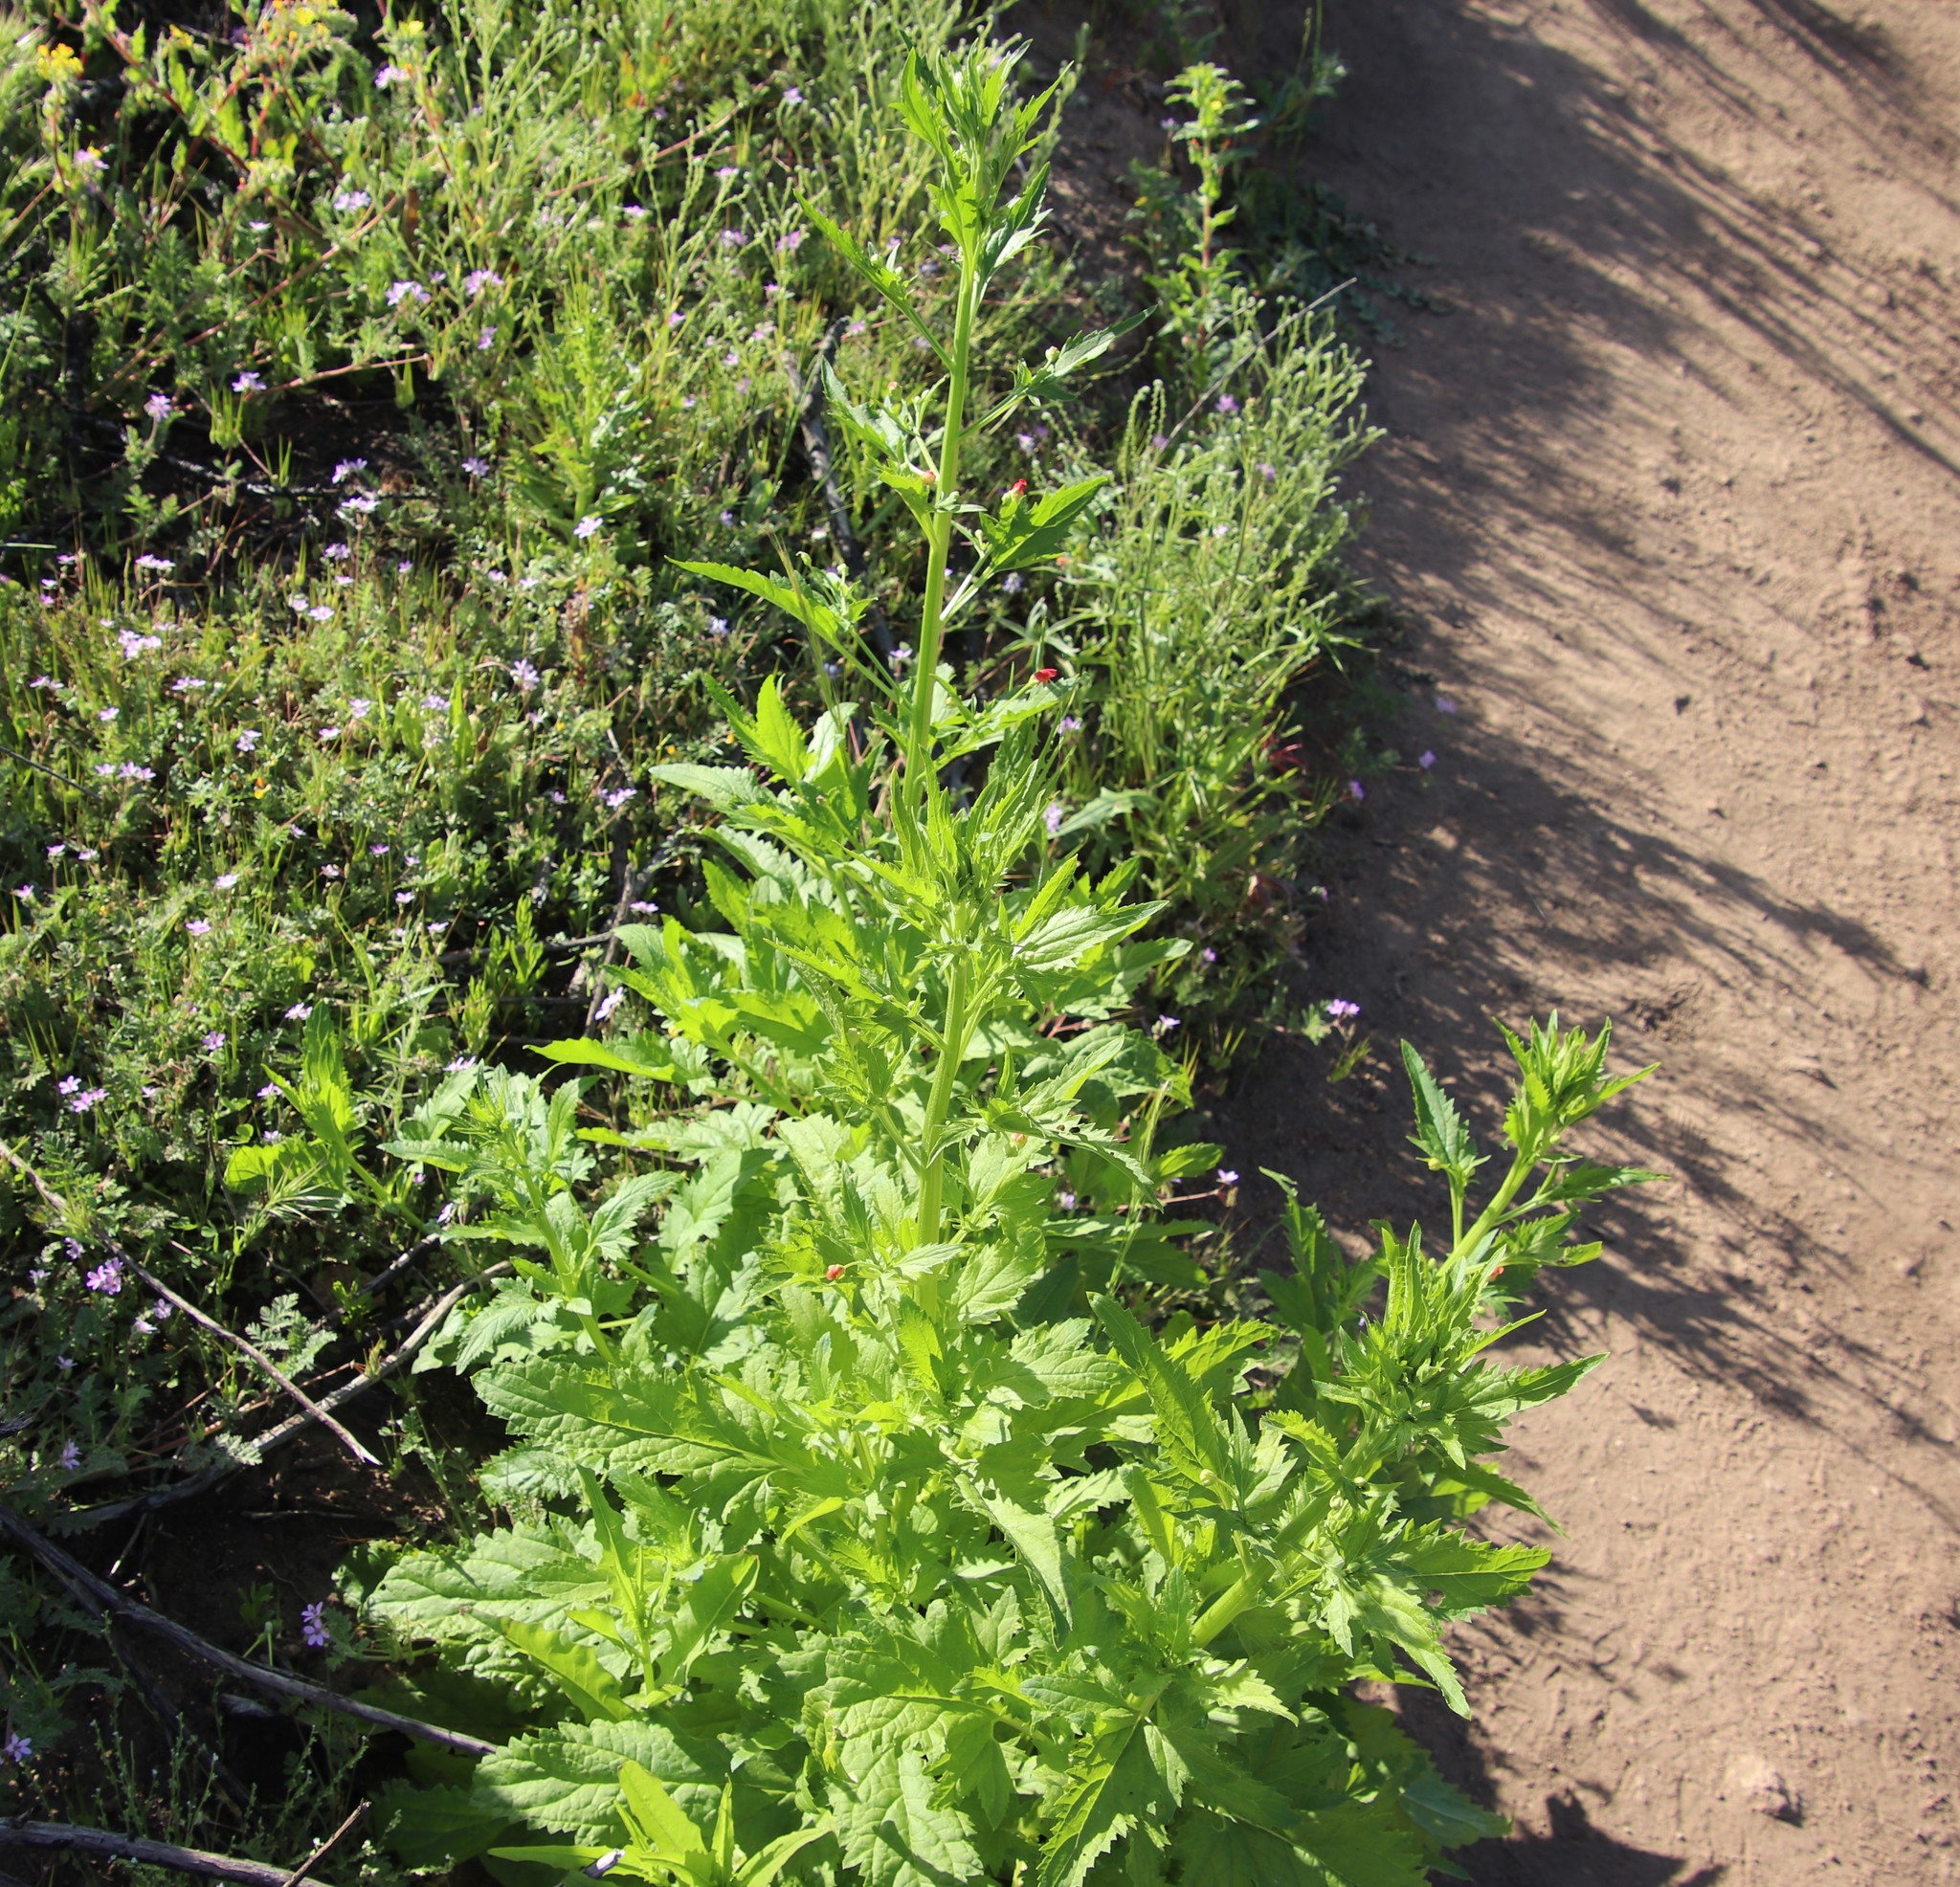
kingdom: Plantae
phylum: Tracheophyta
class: Magnoliopsida
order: Lamiales
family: Scrophulariaceae
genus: Scrophularia
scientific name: Scrophularia californica
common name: California figwort
